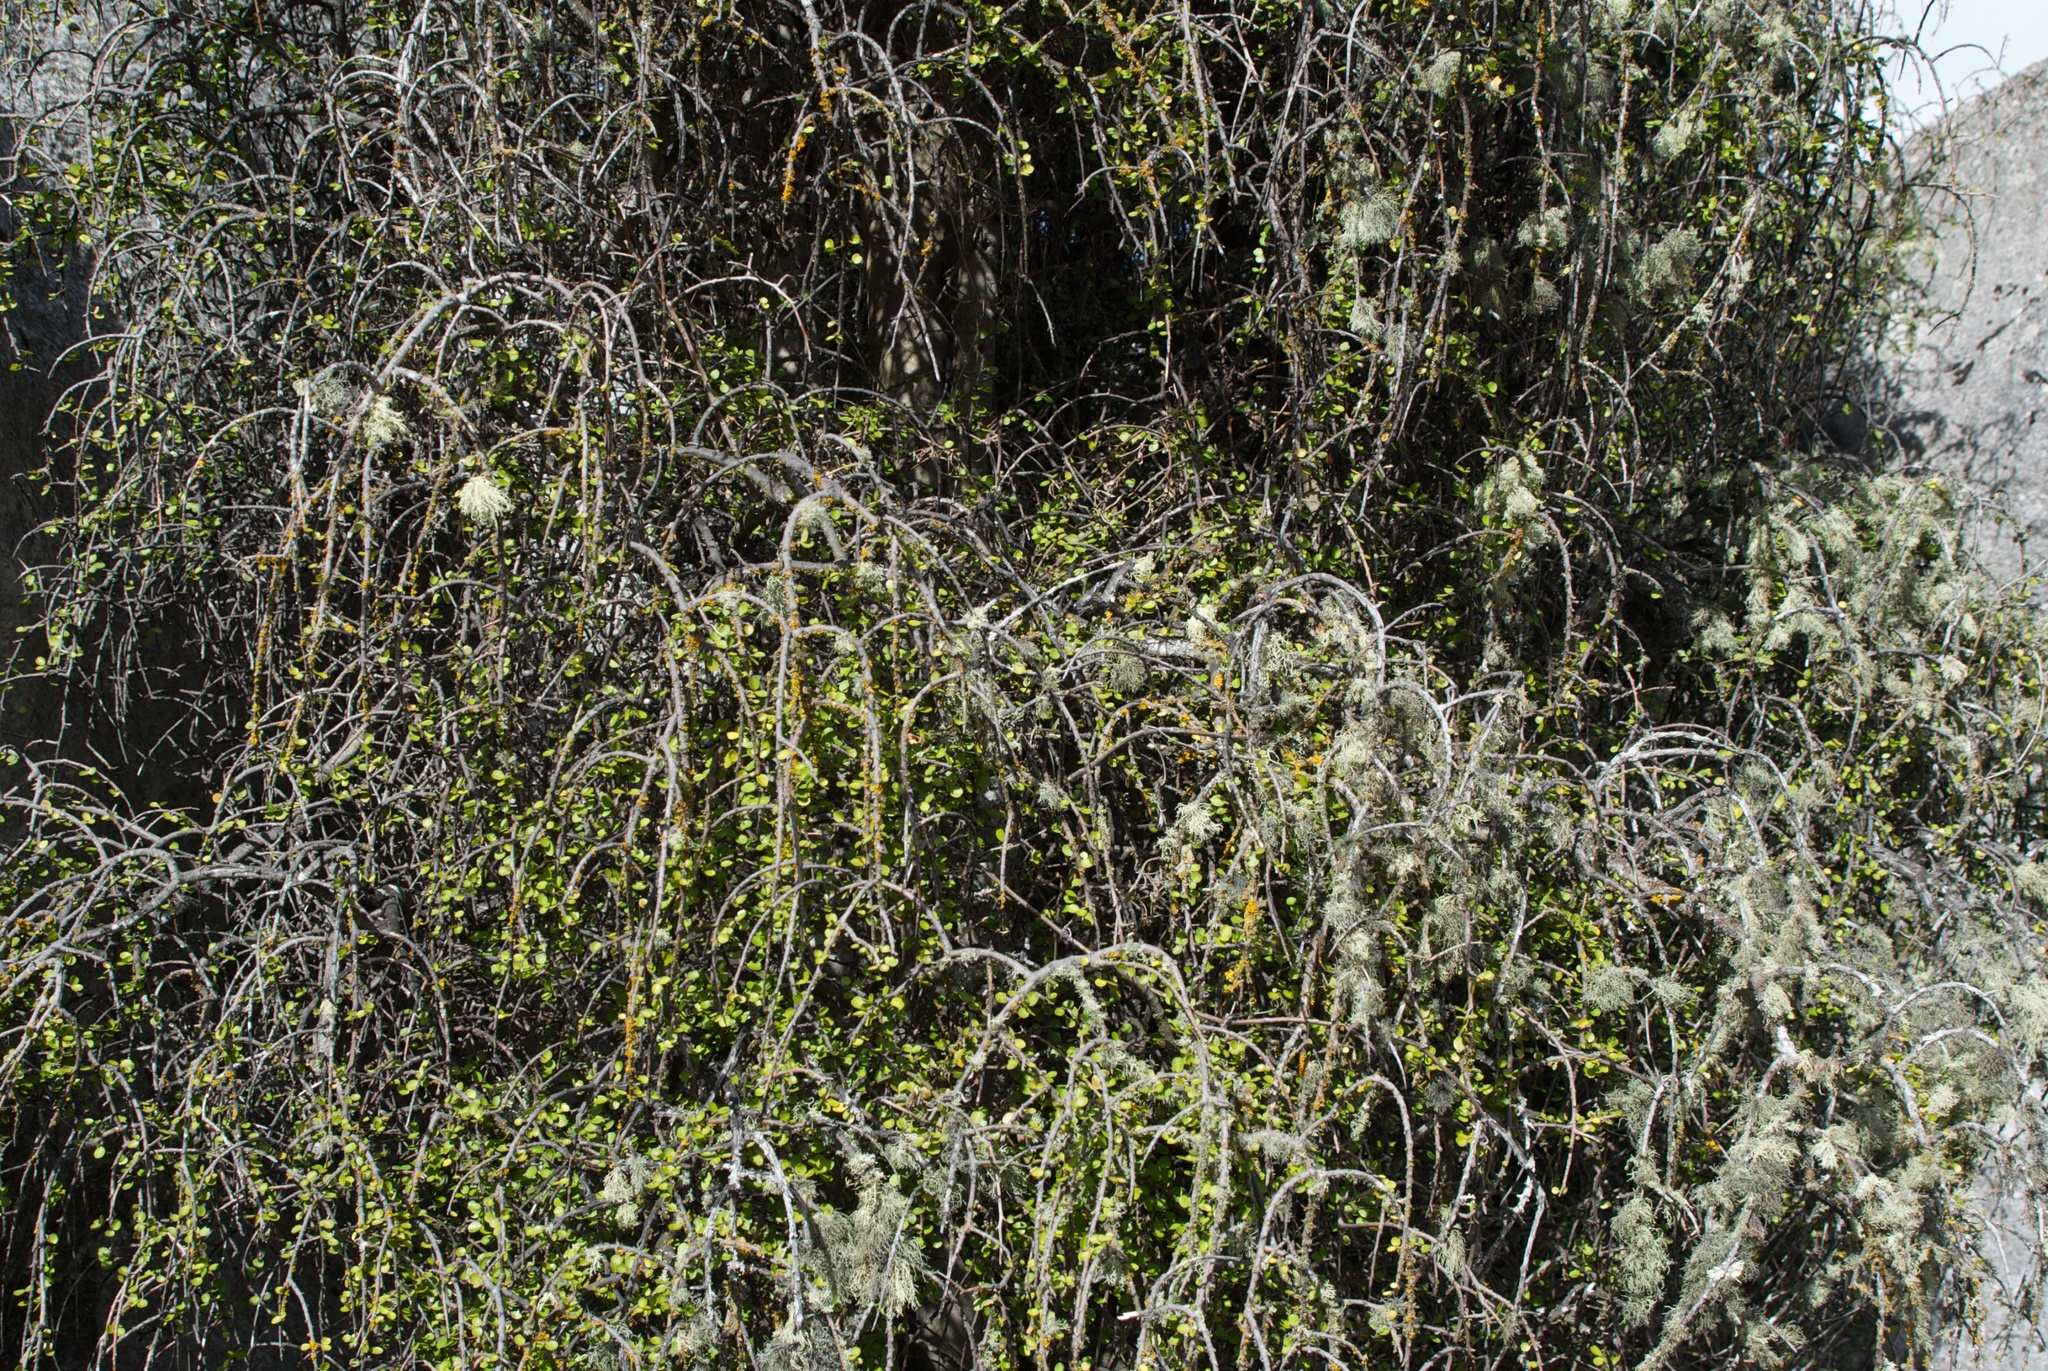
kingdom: Plantae
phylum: Tracheophyta
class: Magnoliopsida
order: Ericales
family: Primulaceae
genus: Myrsine
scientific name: Myrsine divaricata
